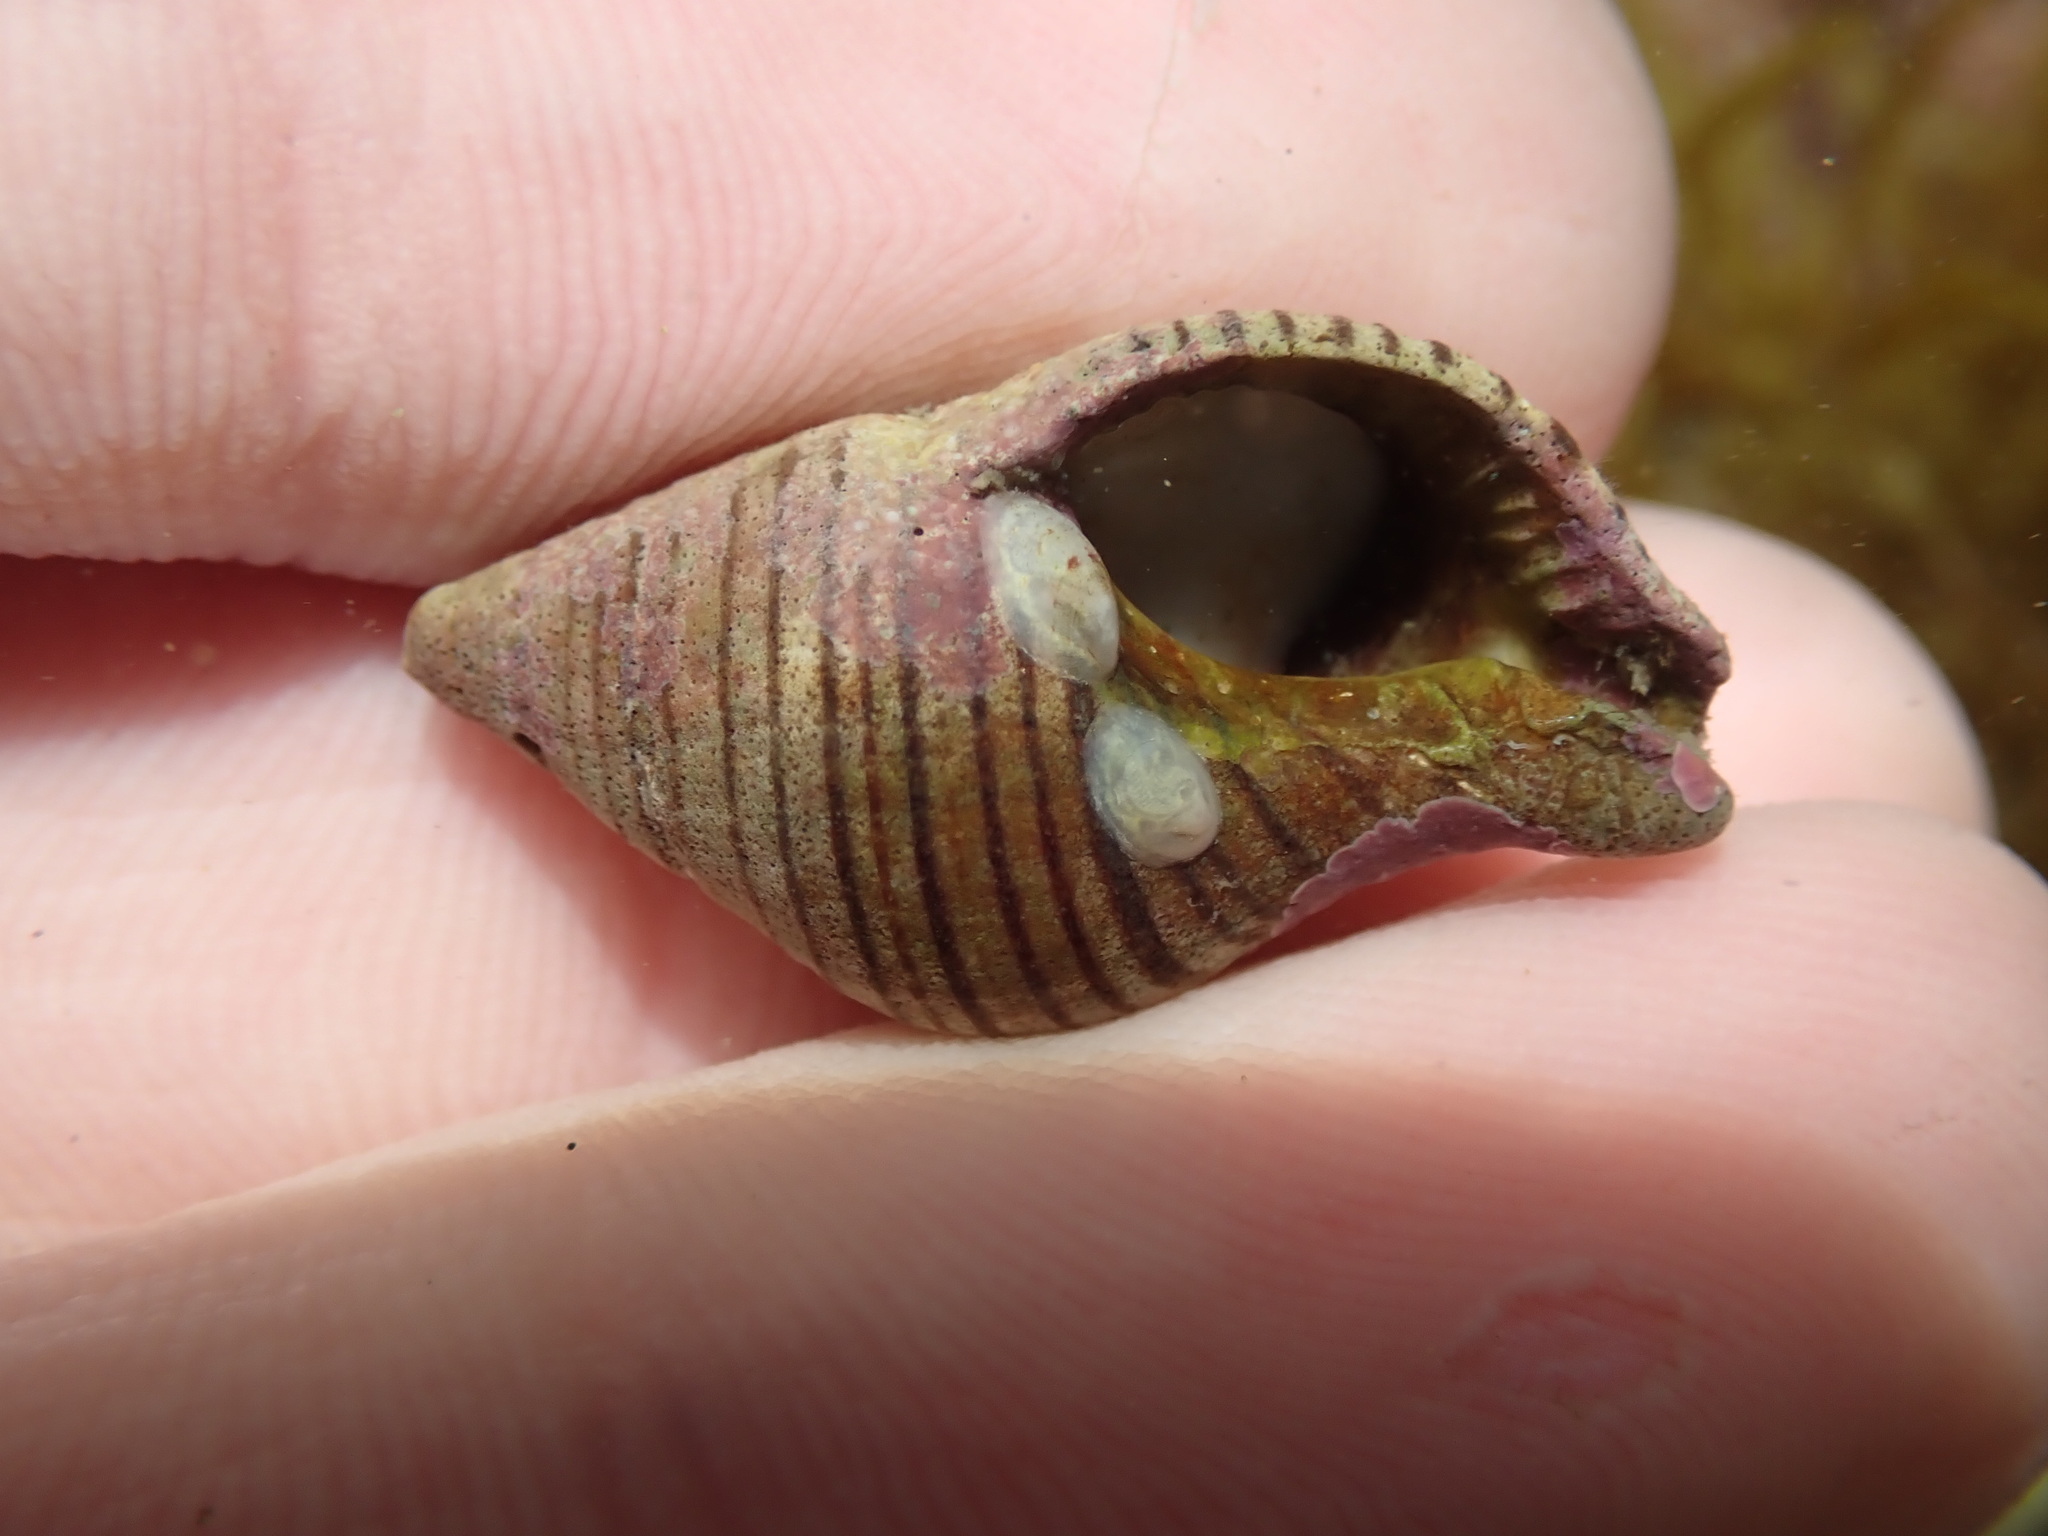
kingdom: Animalia
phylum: Mollusca
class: Gastropoda
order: Neogastropoda
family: Tudiclidae
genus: Buccinulum
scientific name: Buccinulum linea
